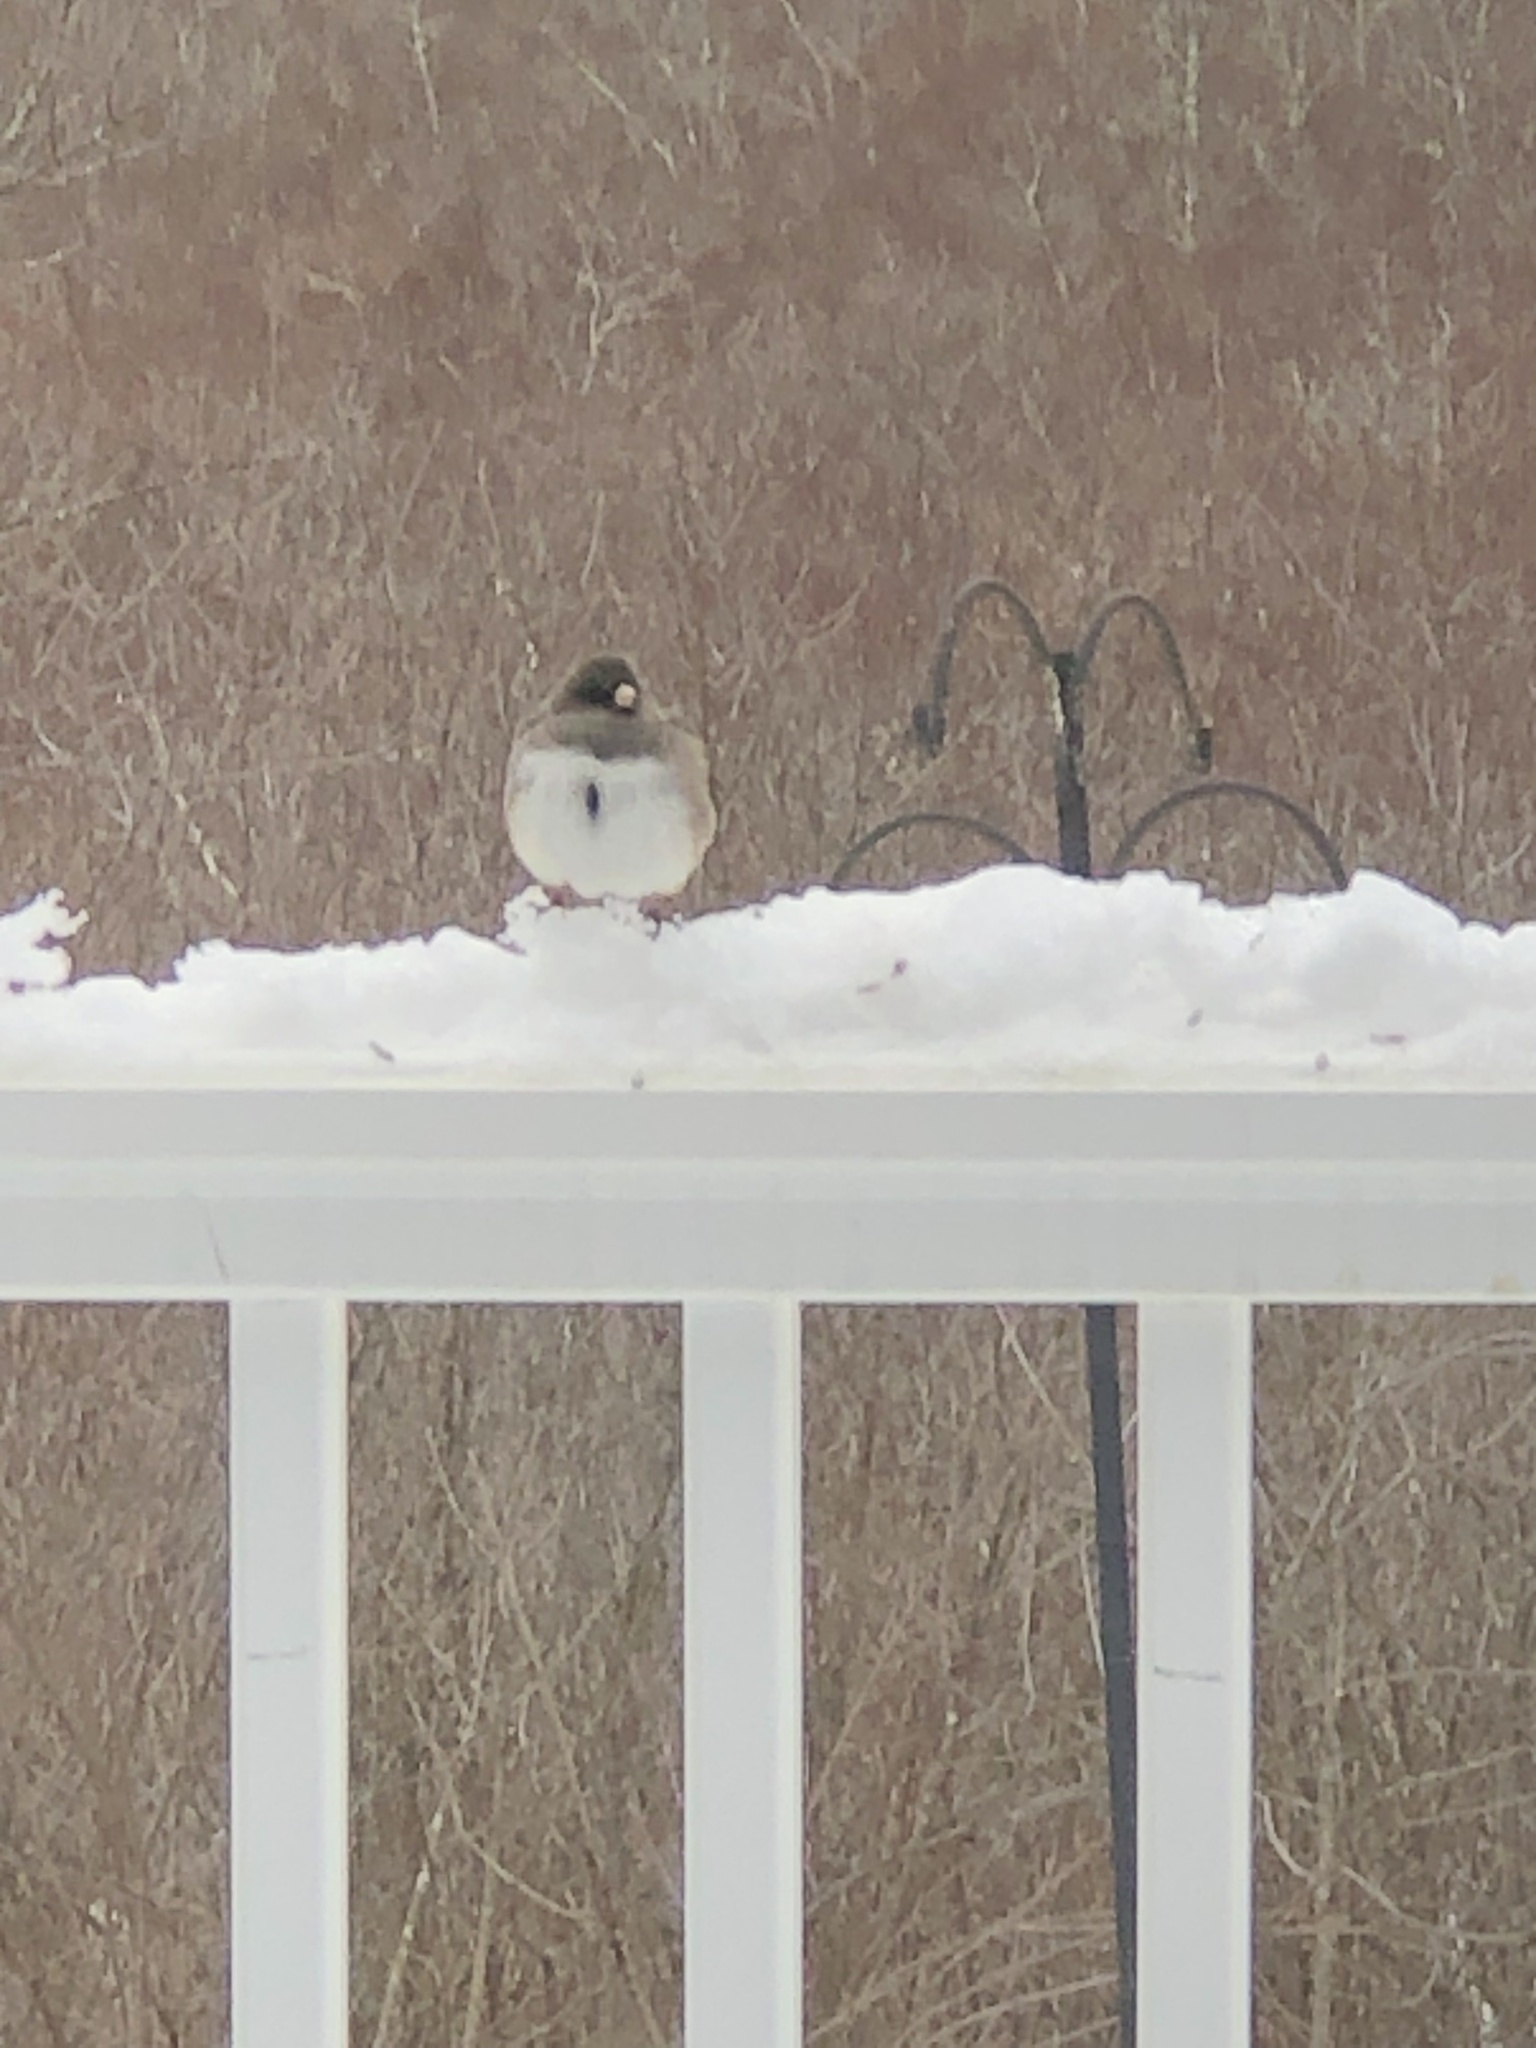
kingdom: Animalia
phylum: Chordata
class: Aves
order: Passeriformes
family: Passerellidae
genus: Junco
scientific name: Junco hyemalis
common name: Dark-eyed junco
